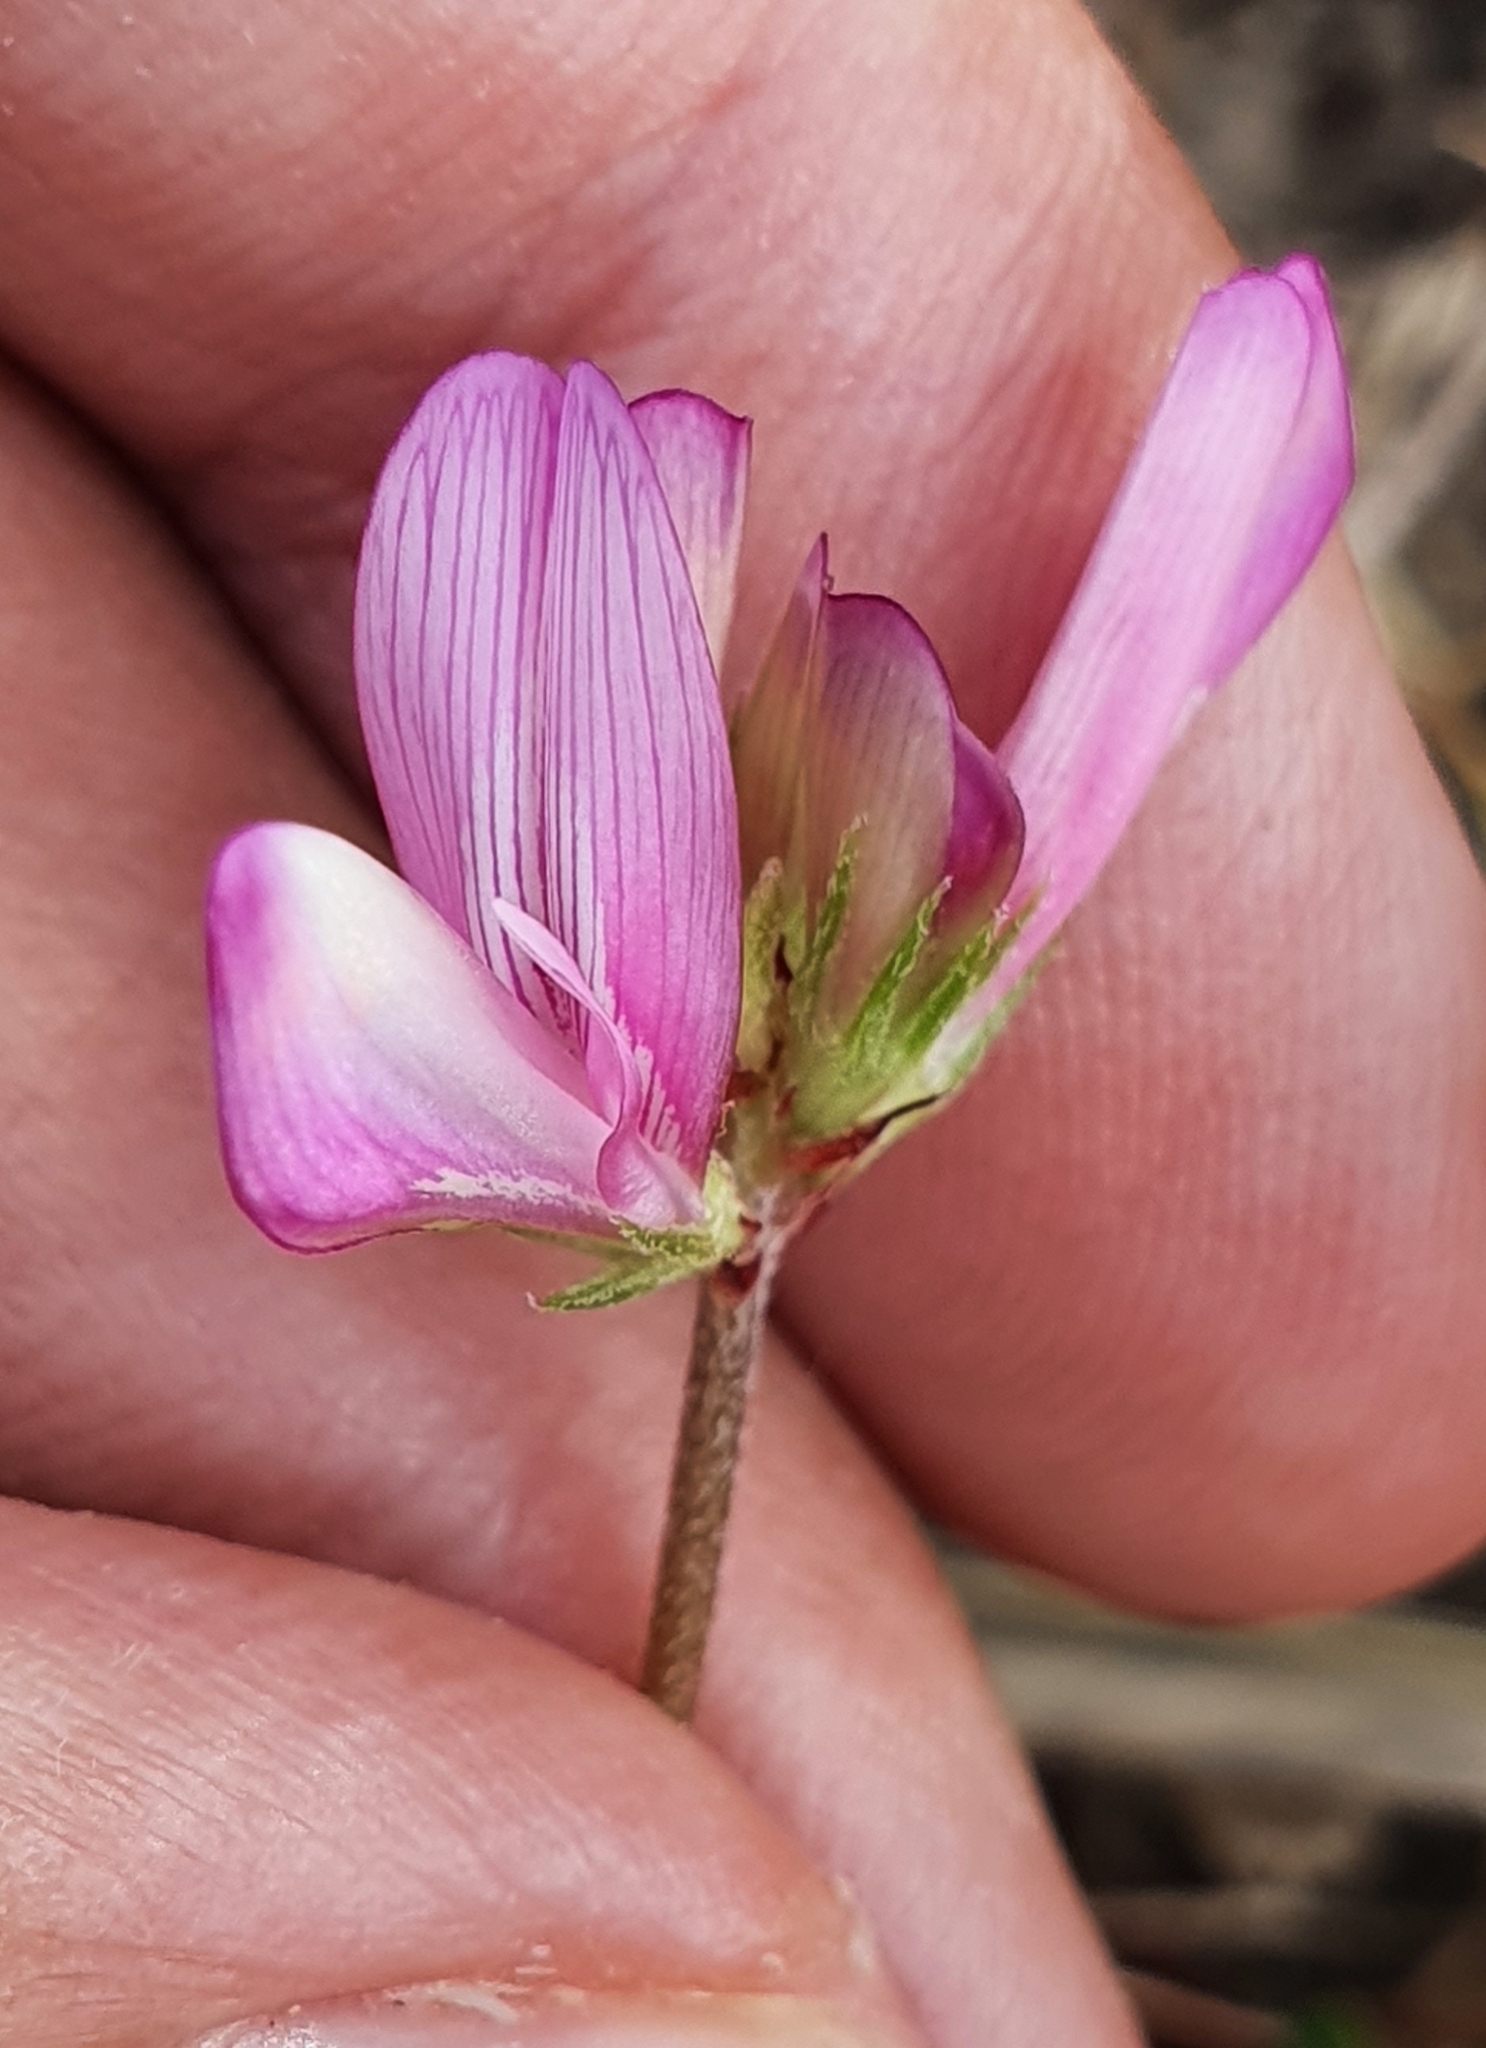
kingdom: Plantae
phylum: Tracheophyta
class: Magnoliopsida
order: Fabales
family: Fabaceae
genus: Sulla
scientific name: Sulla glomerata
